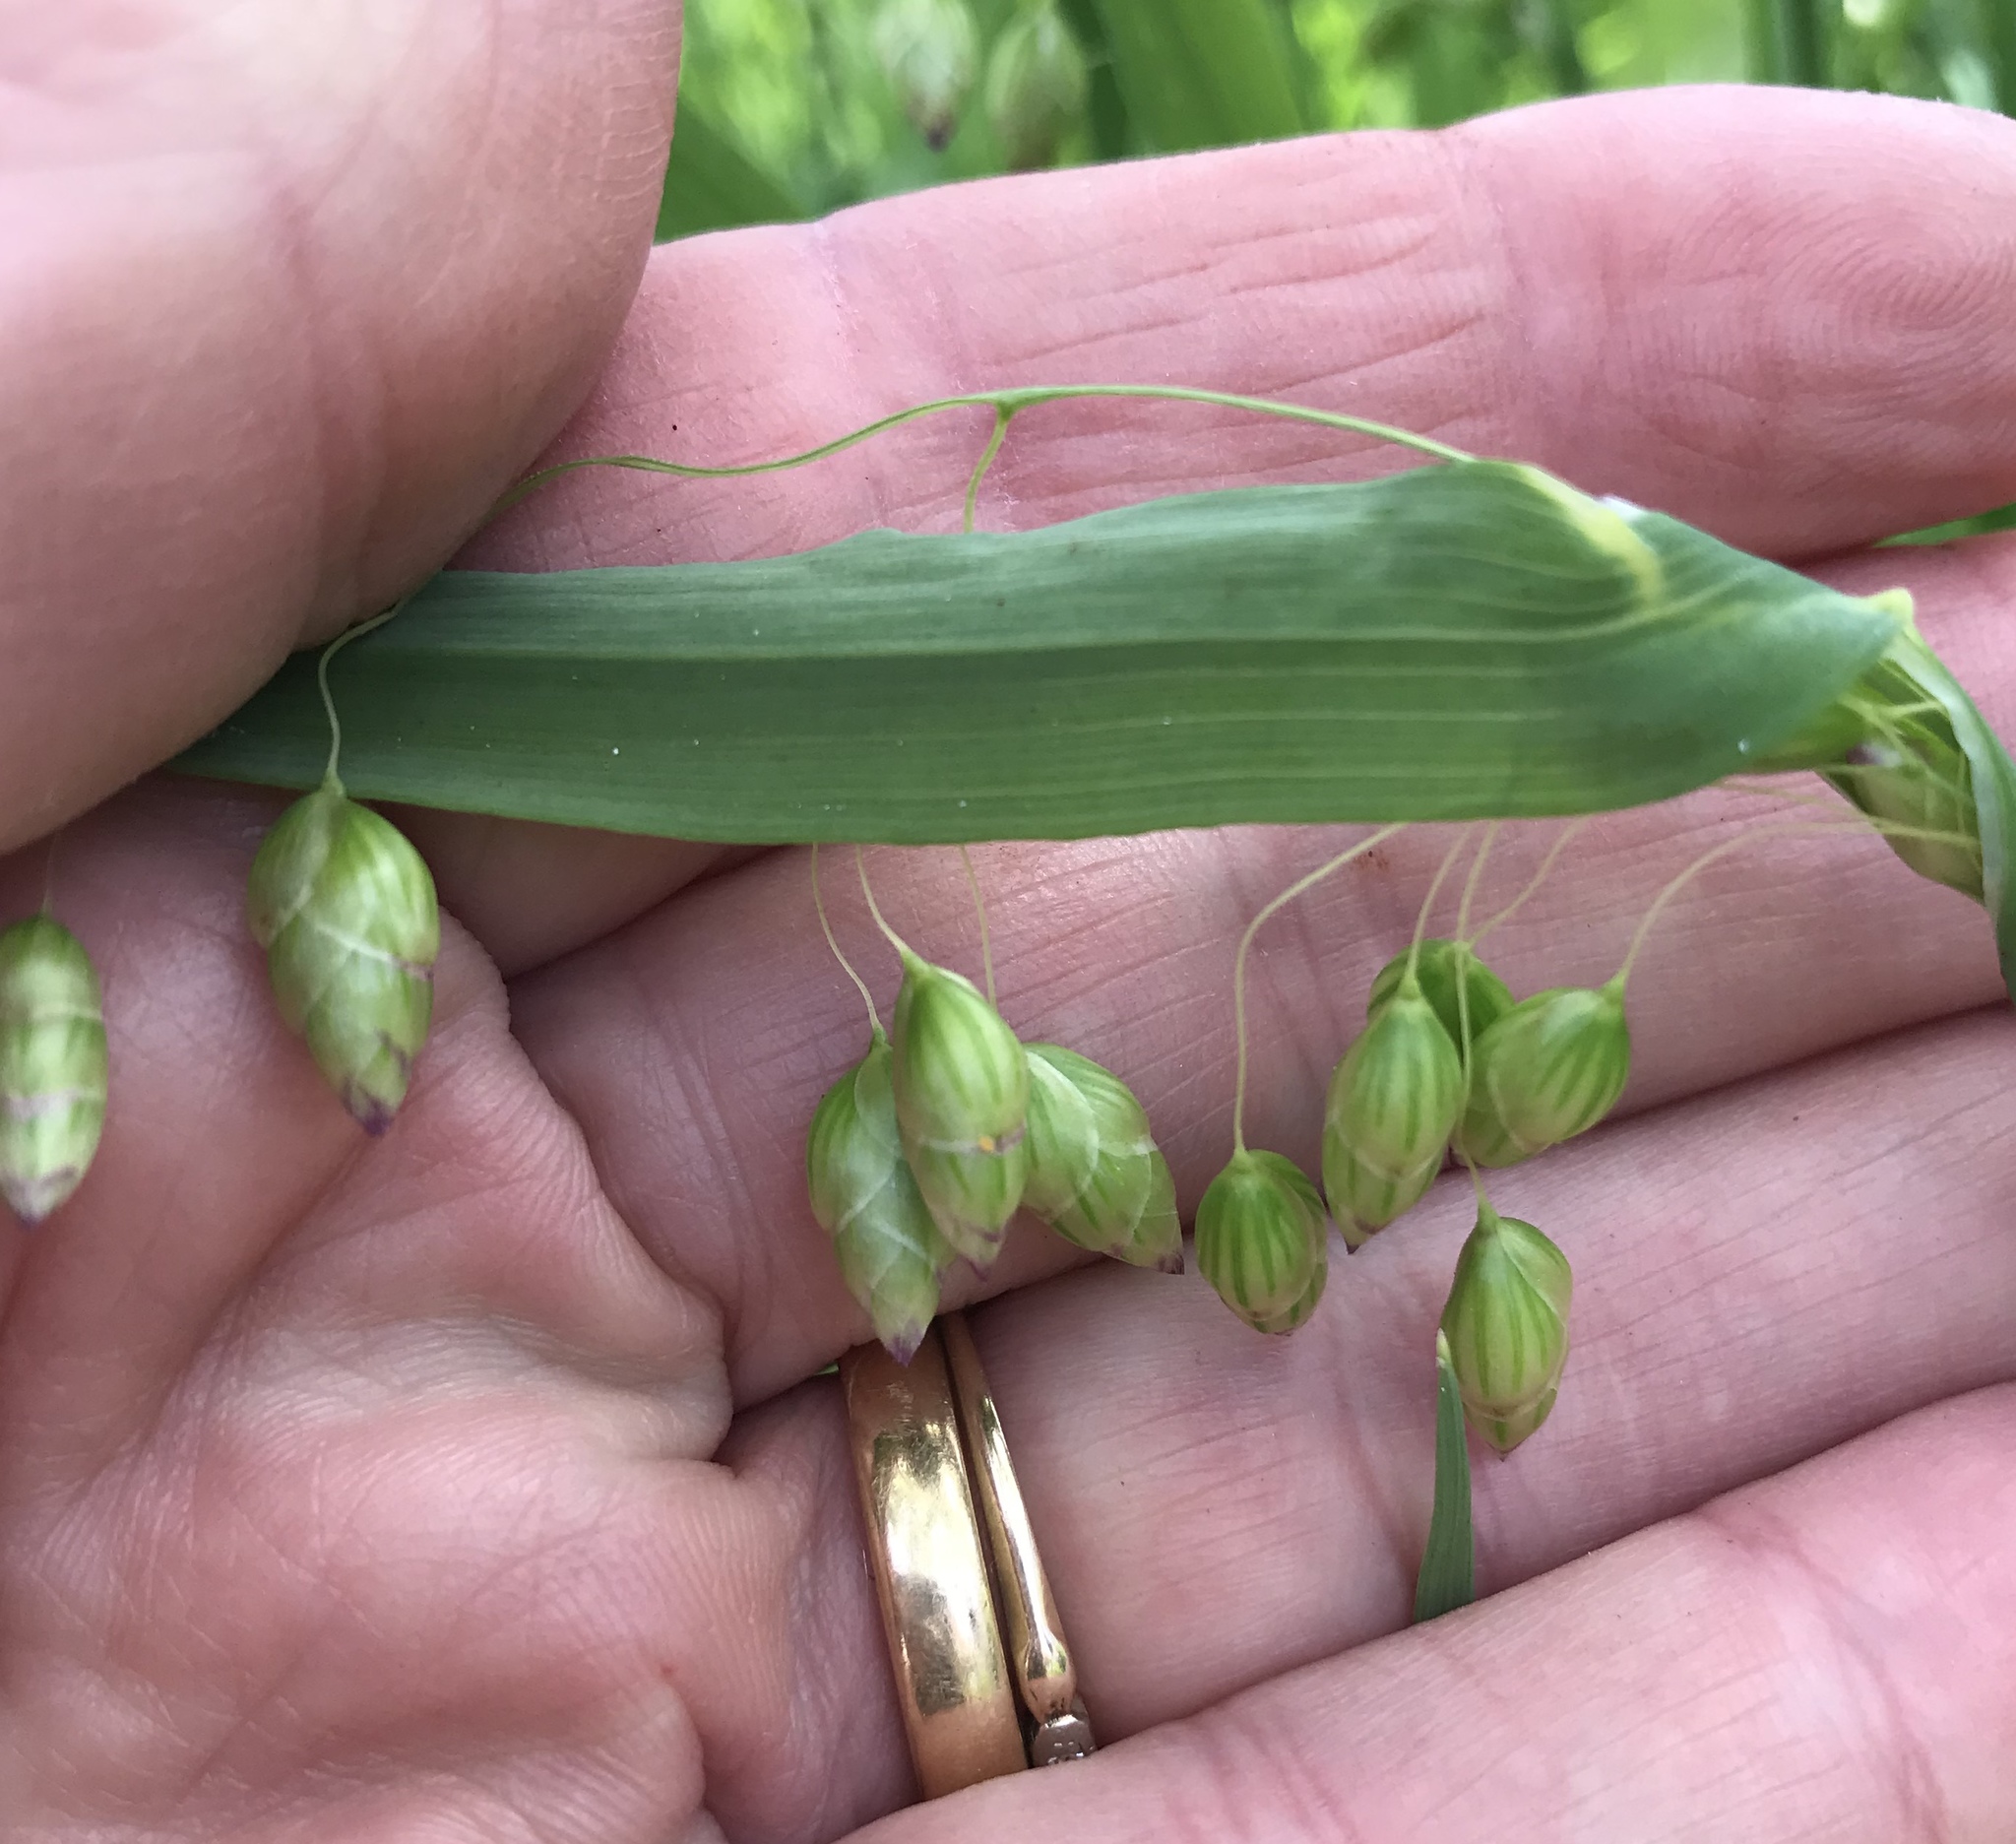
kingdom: Plantae
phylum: Tracheophyta
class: Liliopsida
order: Poales
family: Poaceae
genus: Briza
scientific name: Briza maxima
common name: Big quakinggrass
